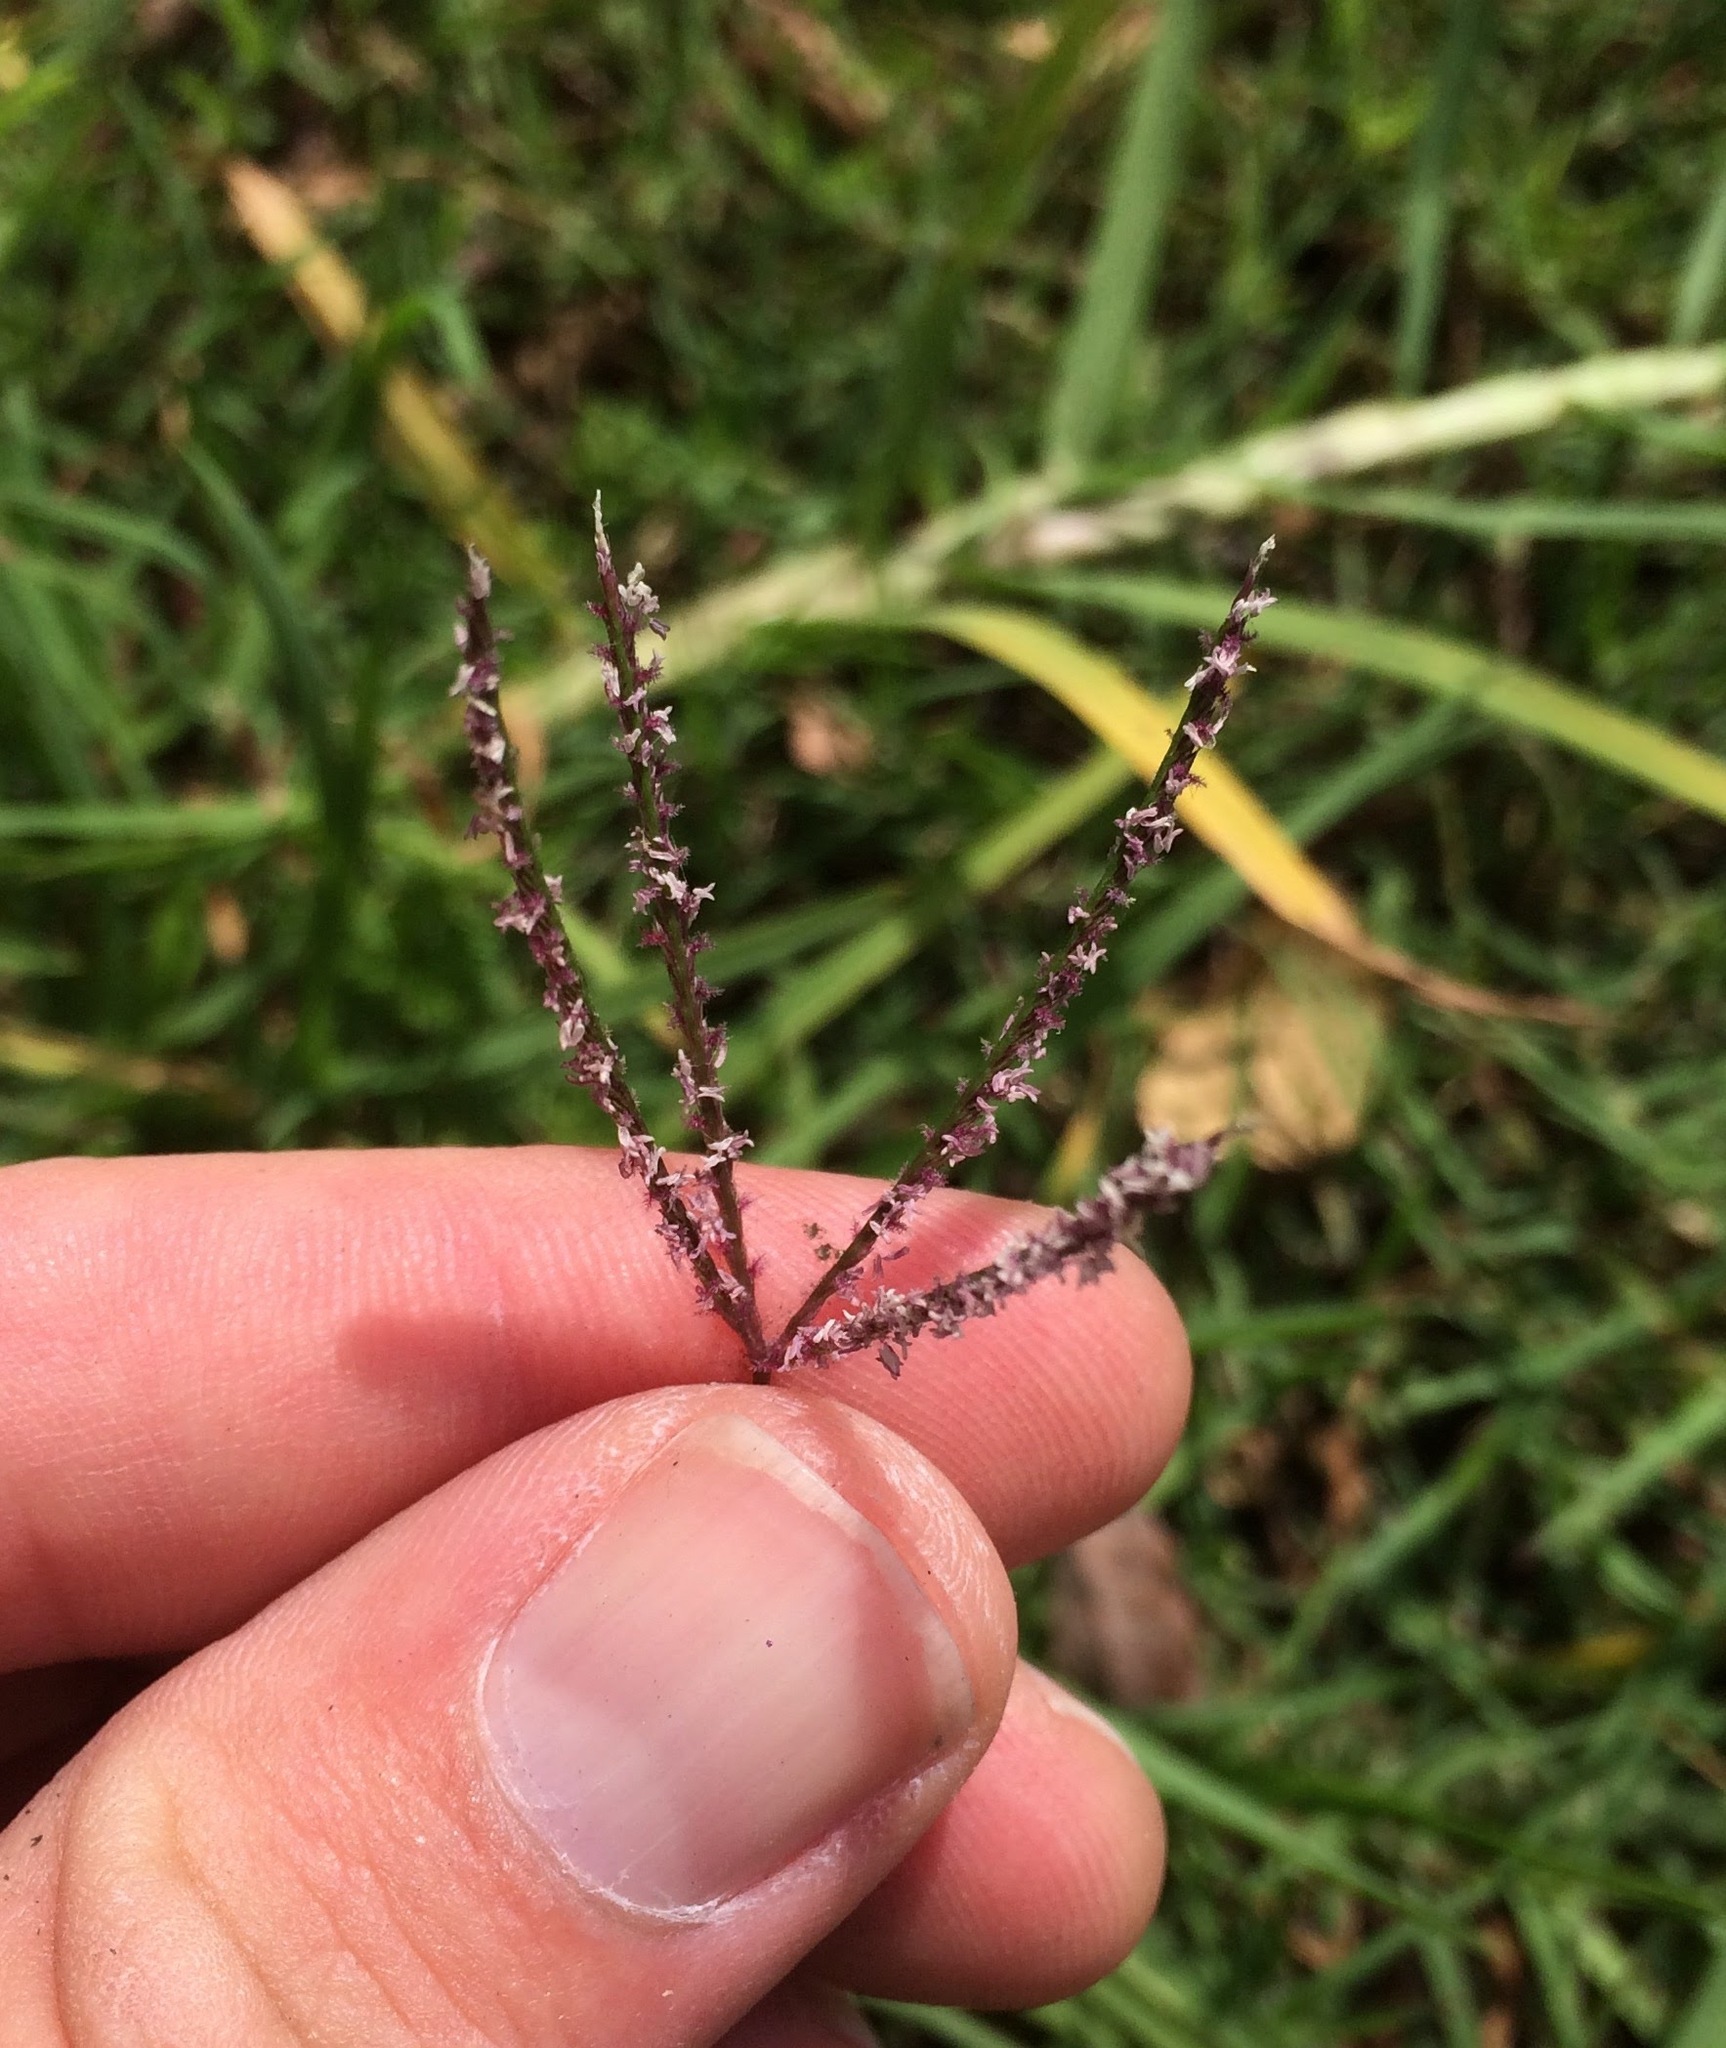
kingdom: Plantae
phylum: Tracheophyta
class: Liliopsida
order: Poales
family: Poaceae
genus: Cynodon
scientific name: Cynodon dactylon
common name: Bermuda grass
